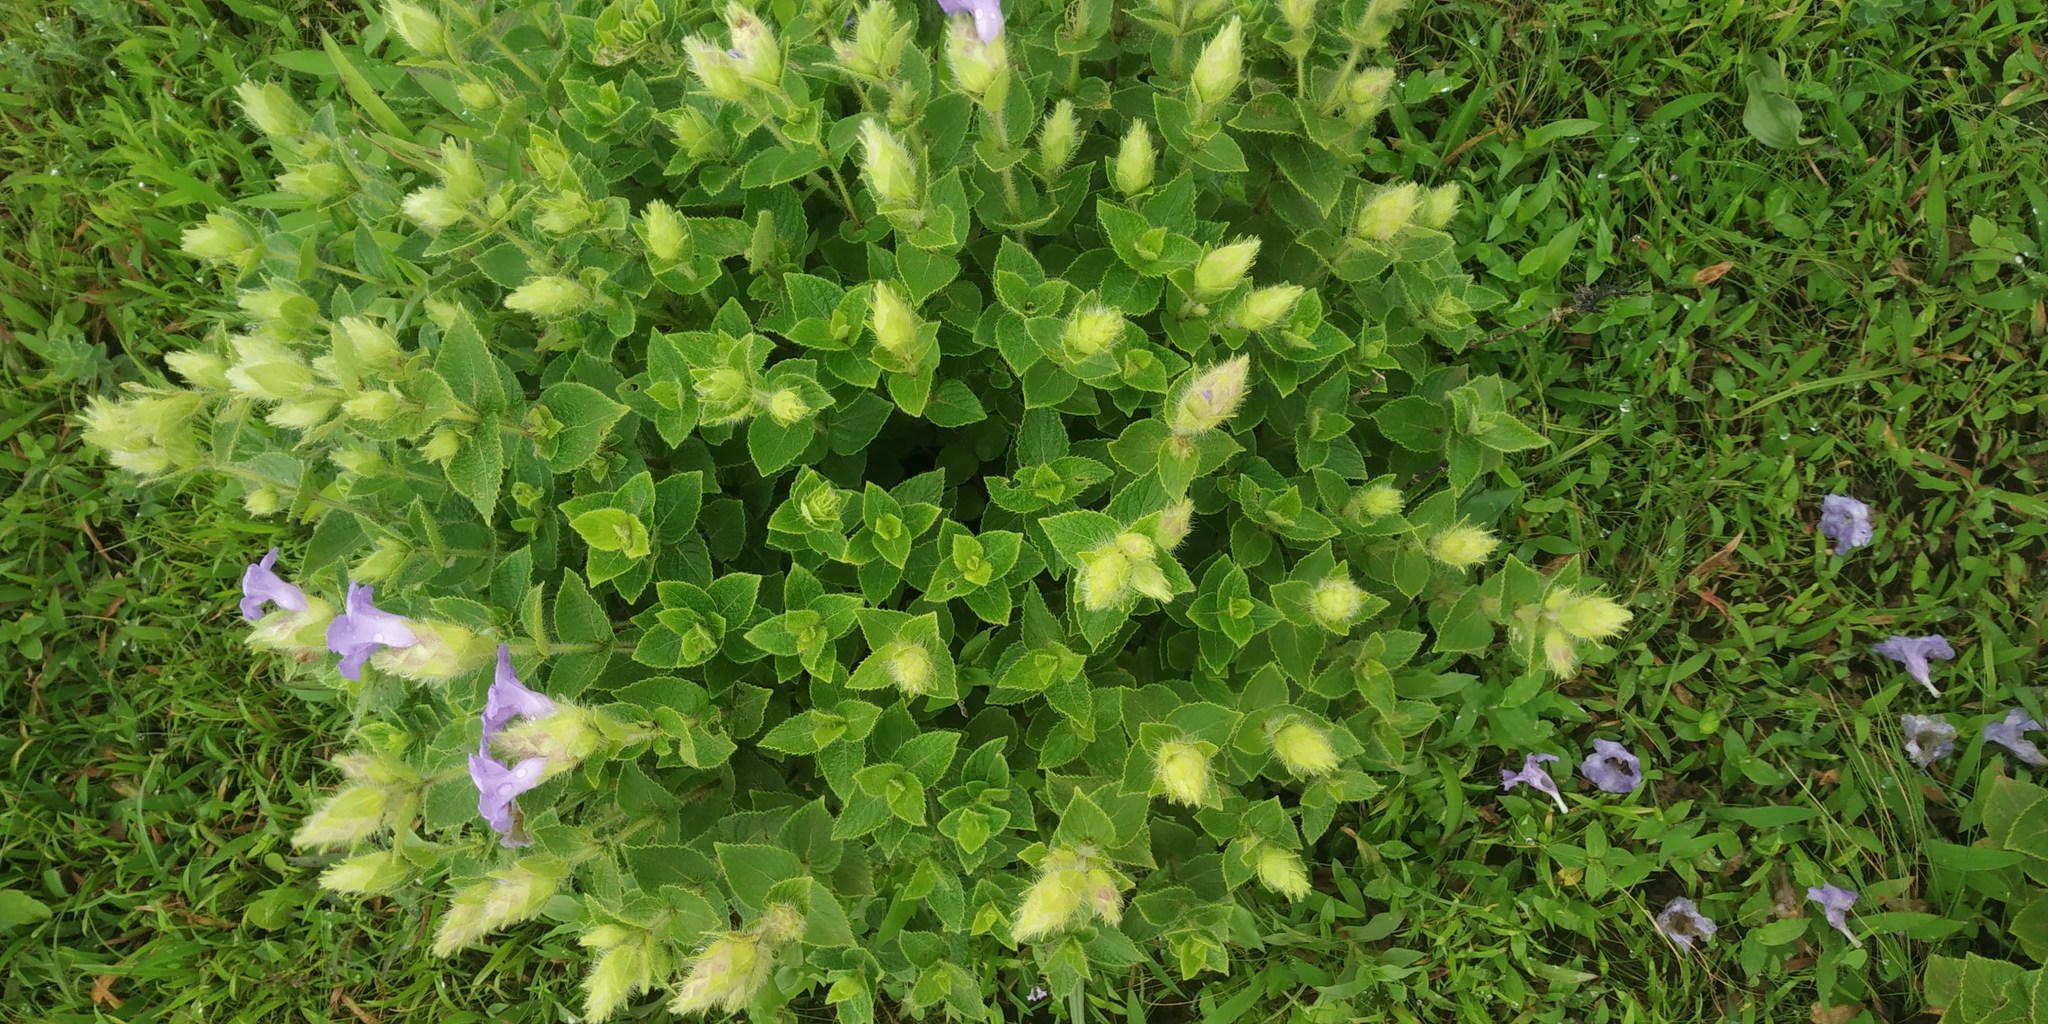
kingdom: Plantae
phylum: Tracheophyta
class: Magnoliopsida
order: Lamiales
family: Acanthaceae
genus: Strobilanthes
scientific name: Strobilanthes sessilis
